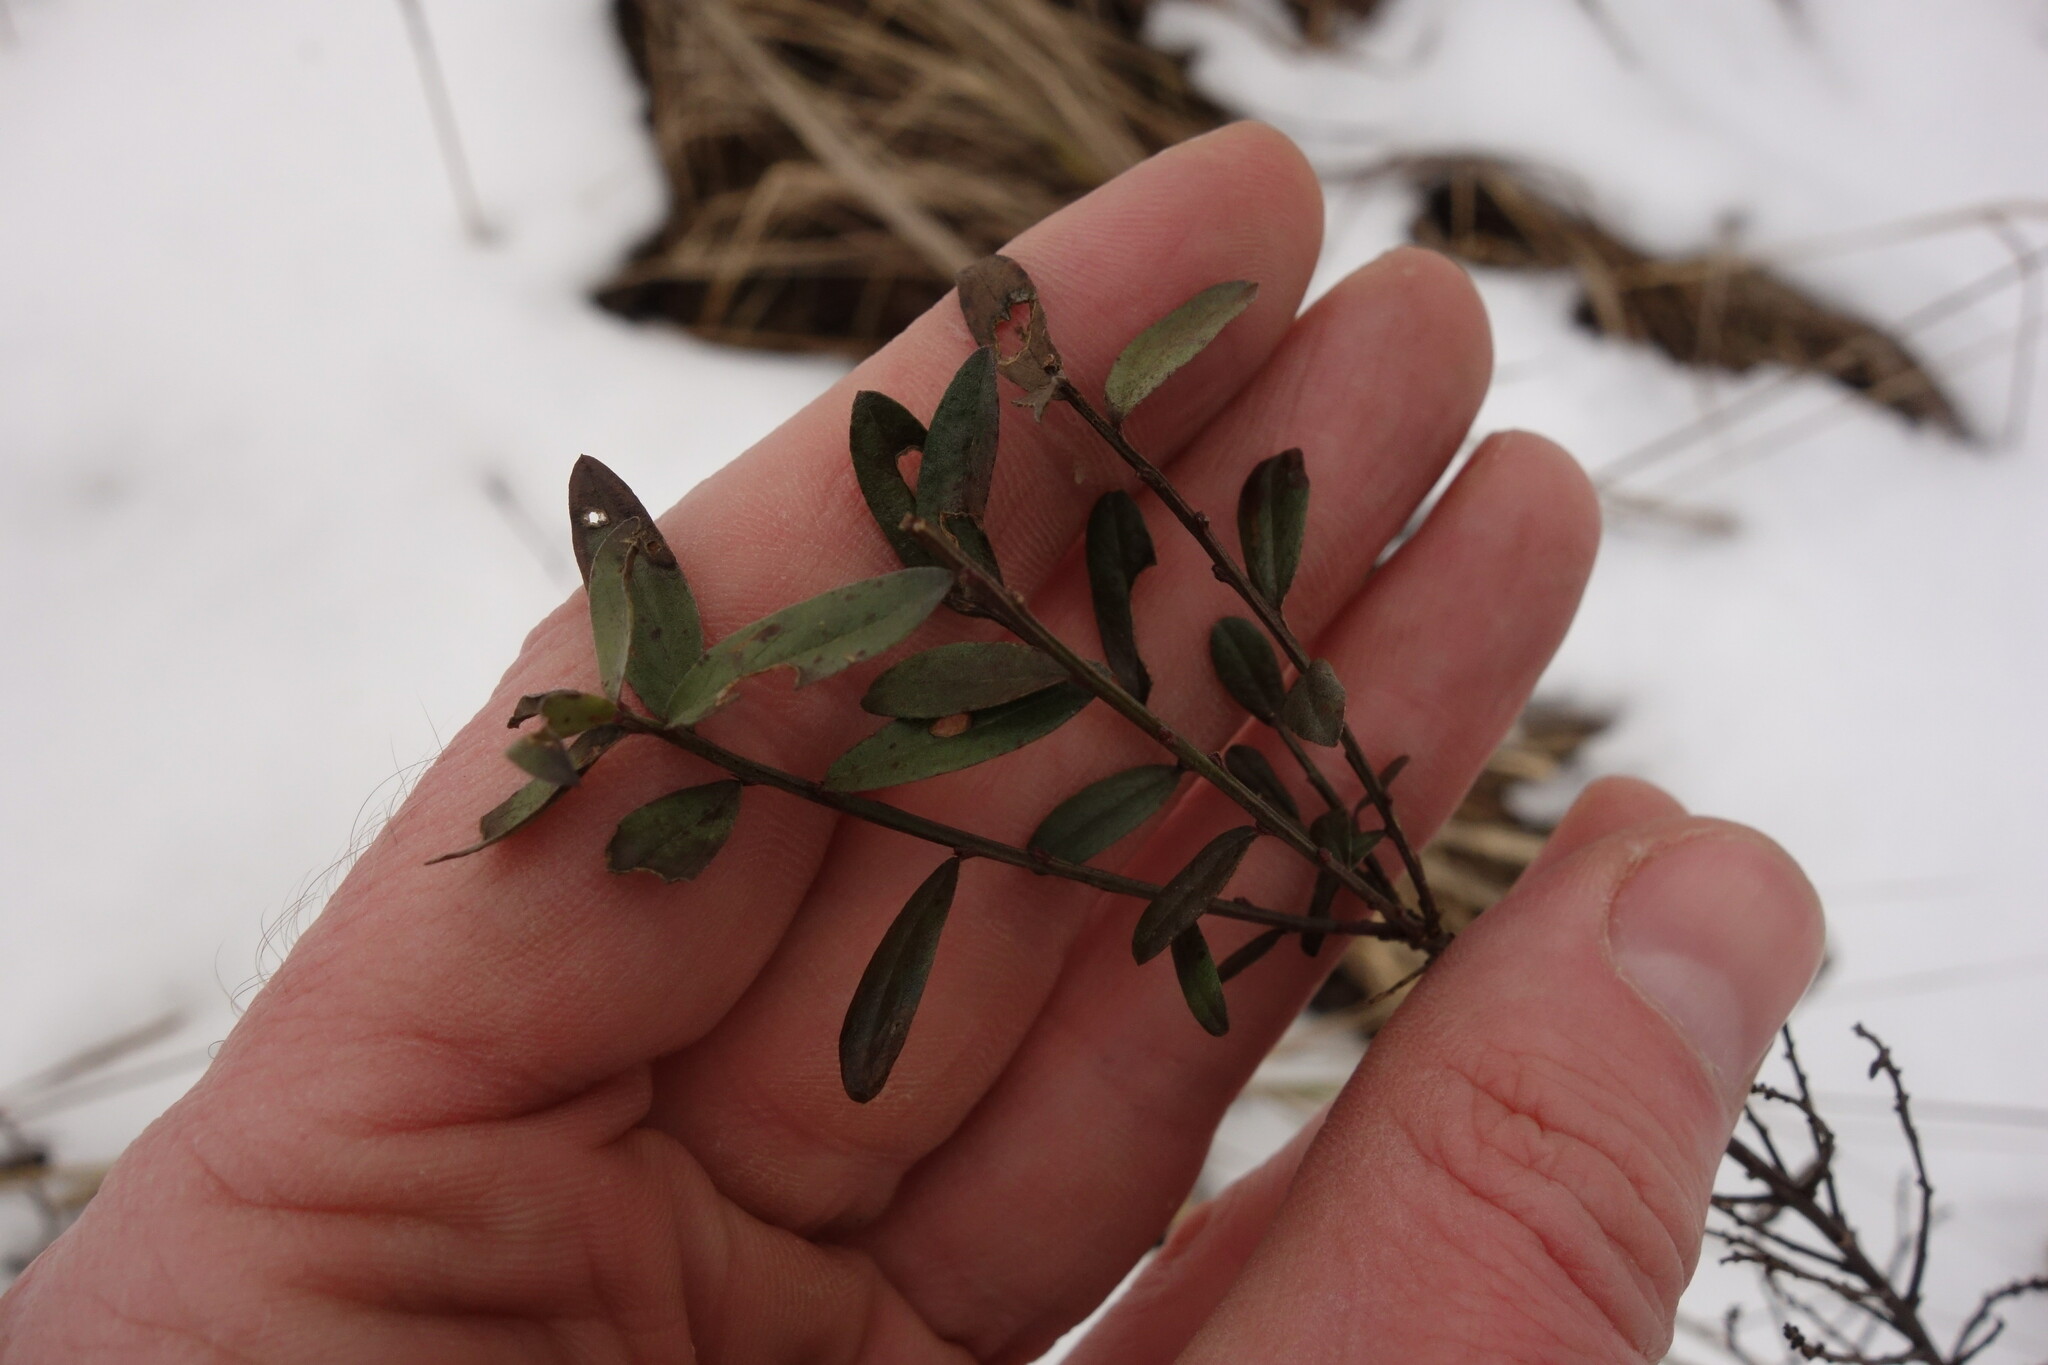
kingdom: Plantae
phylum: Tracheophyta
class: Magnoliopsida
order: Fabales
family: Fabaceae
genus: Genista
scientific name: Genista tinctoria
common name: Dyer's greenweed
